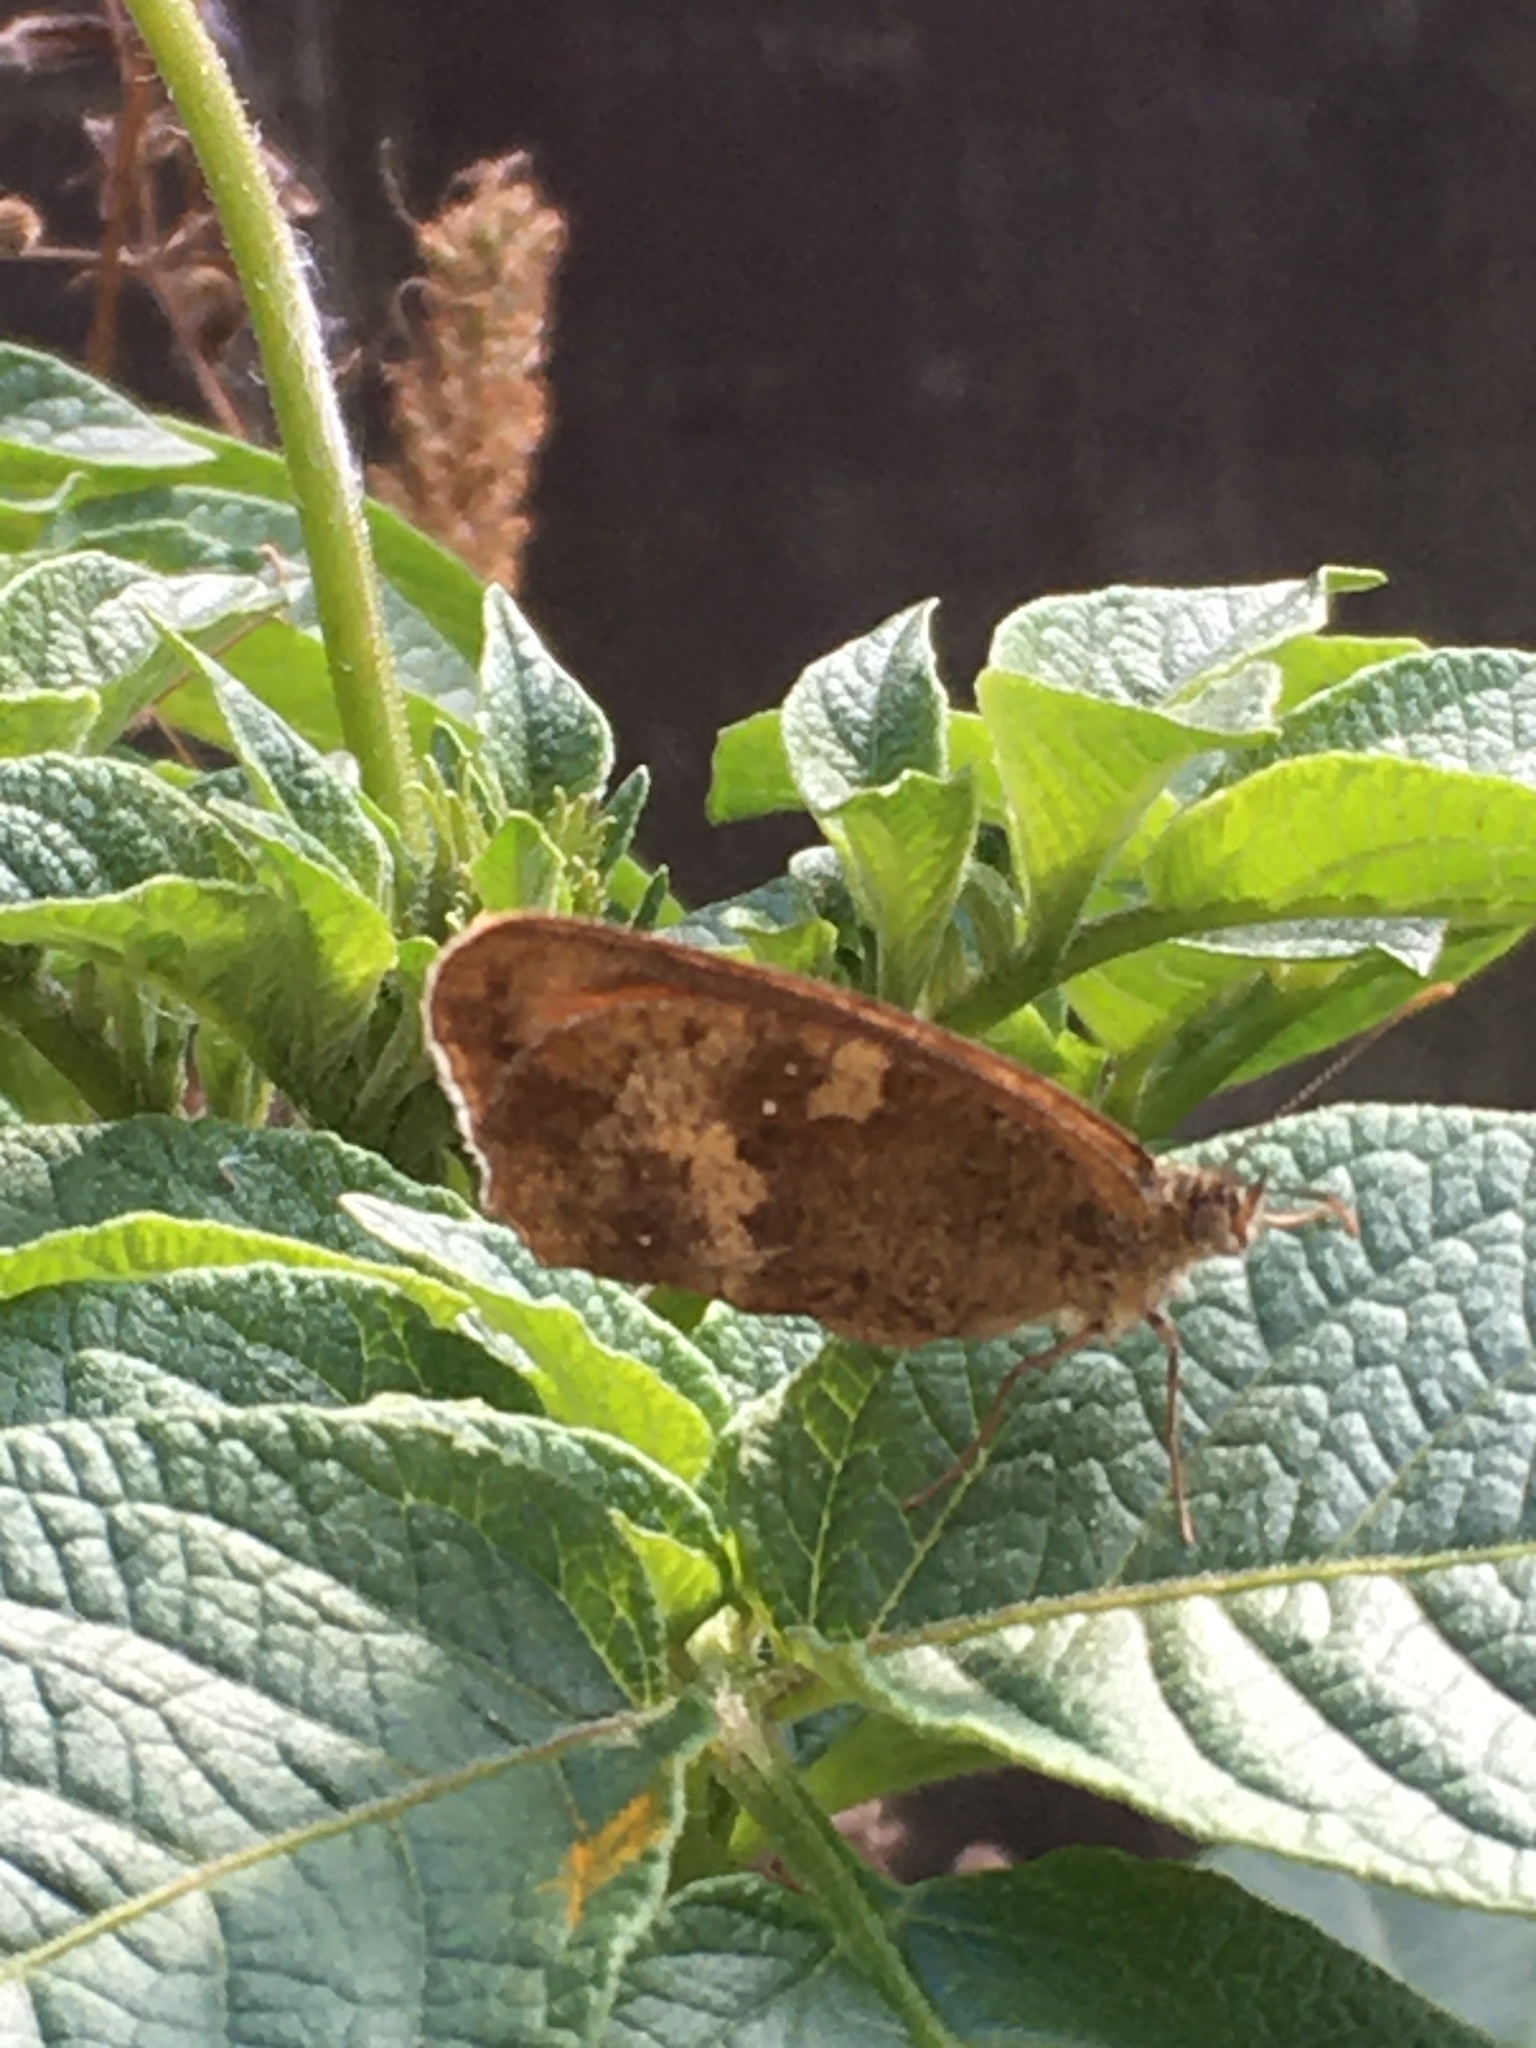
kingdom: Animalia
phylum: Arthropoda
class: Insecta
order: Lepidoptera
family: Nymphalidae
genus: Pyronia
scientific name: Pyronia tithonus
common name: Gatekeeper
